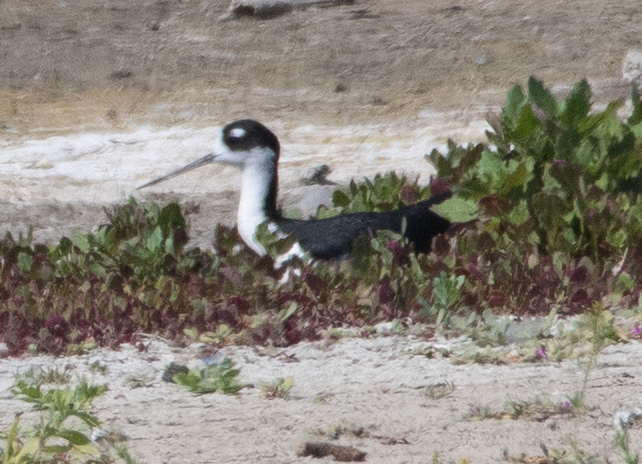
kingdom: Animalia
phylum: Chordata
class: Aves
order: Charadriiformes
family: Recurvirostridae
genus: Himantopus
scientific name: Himantopus mexicanus
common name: Black-necked stilt
